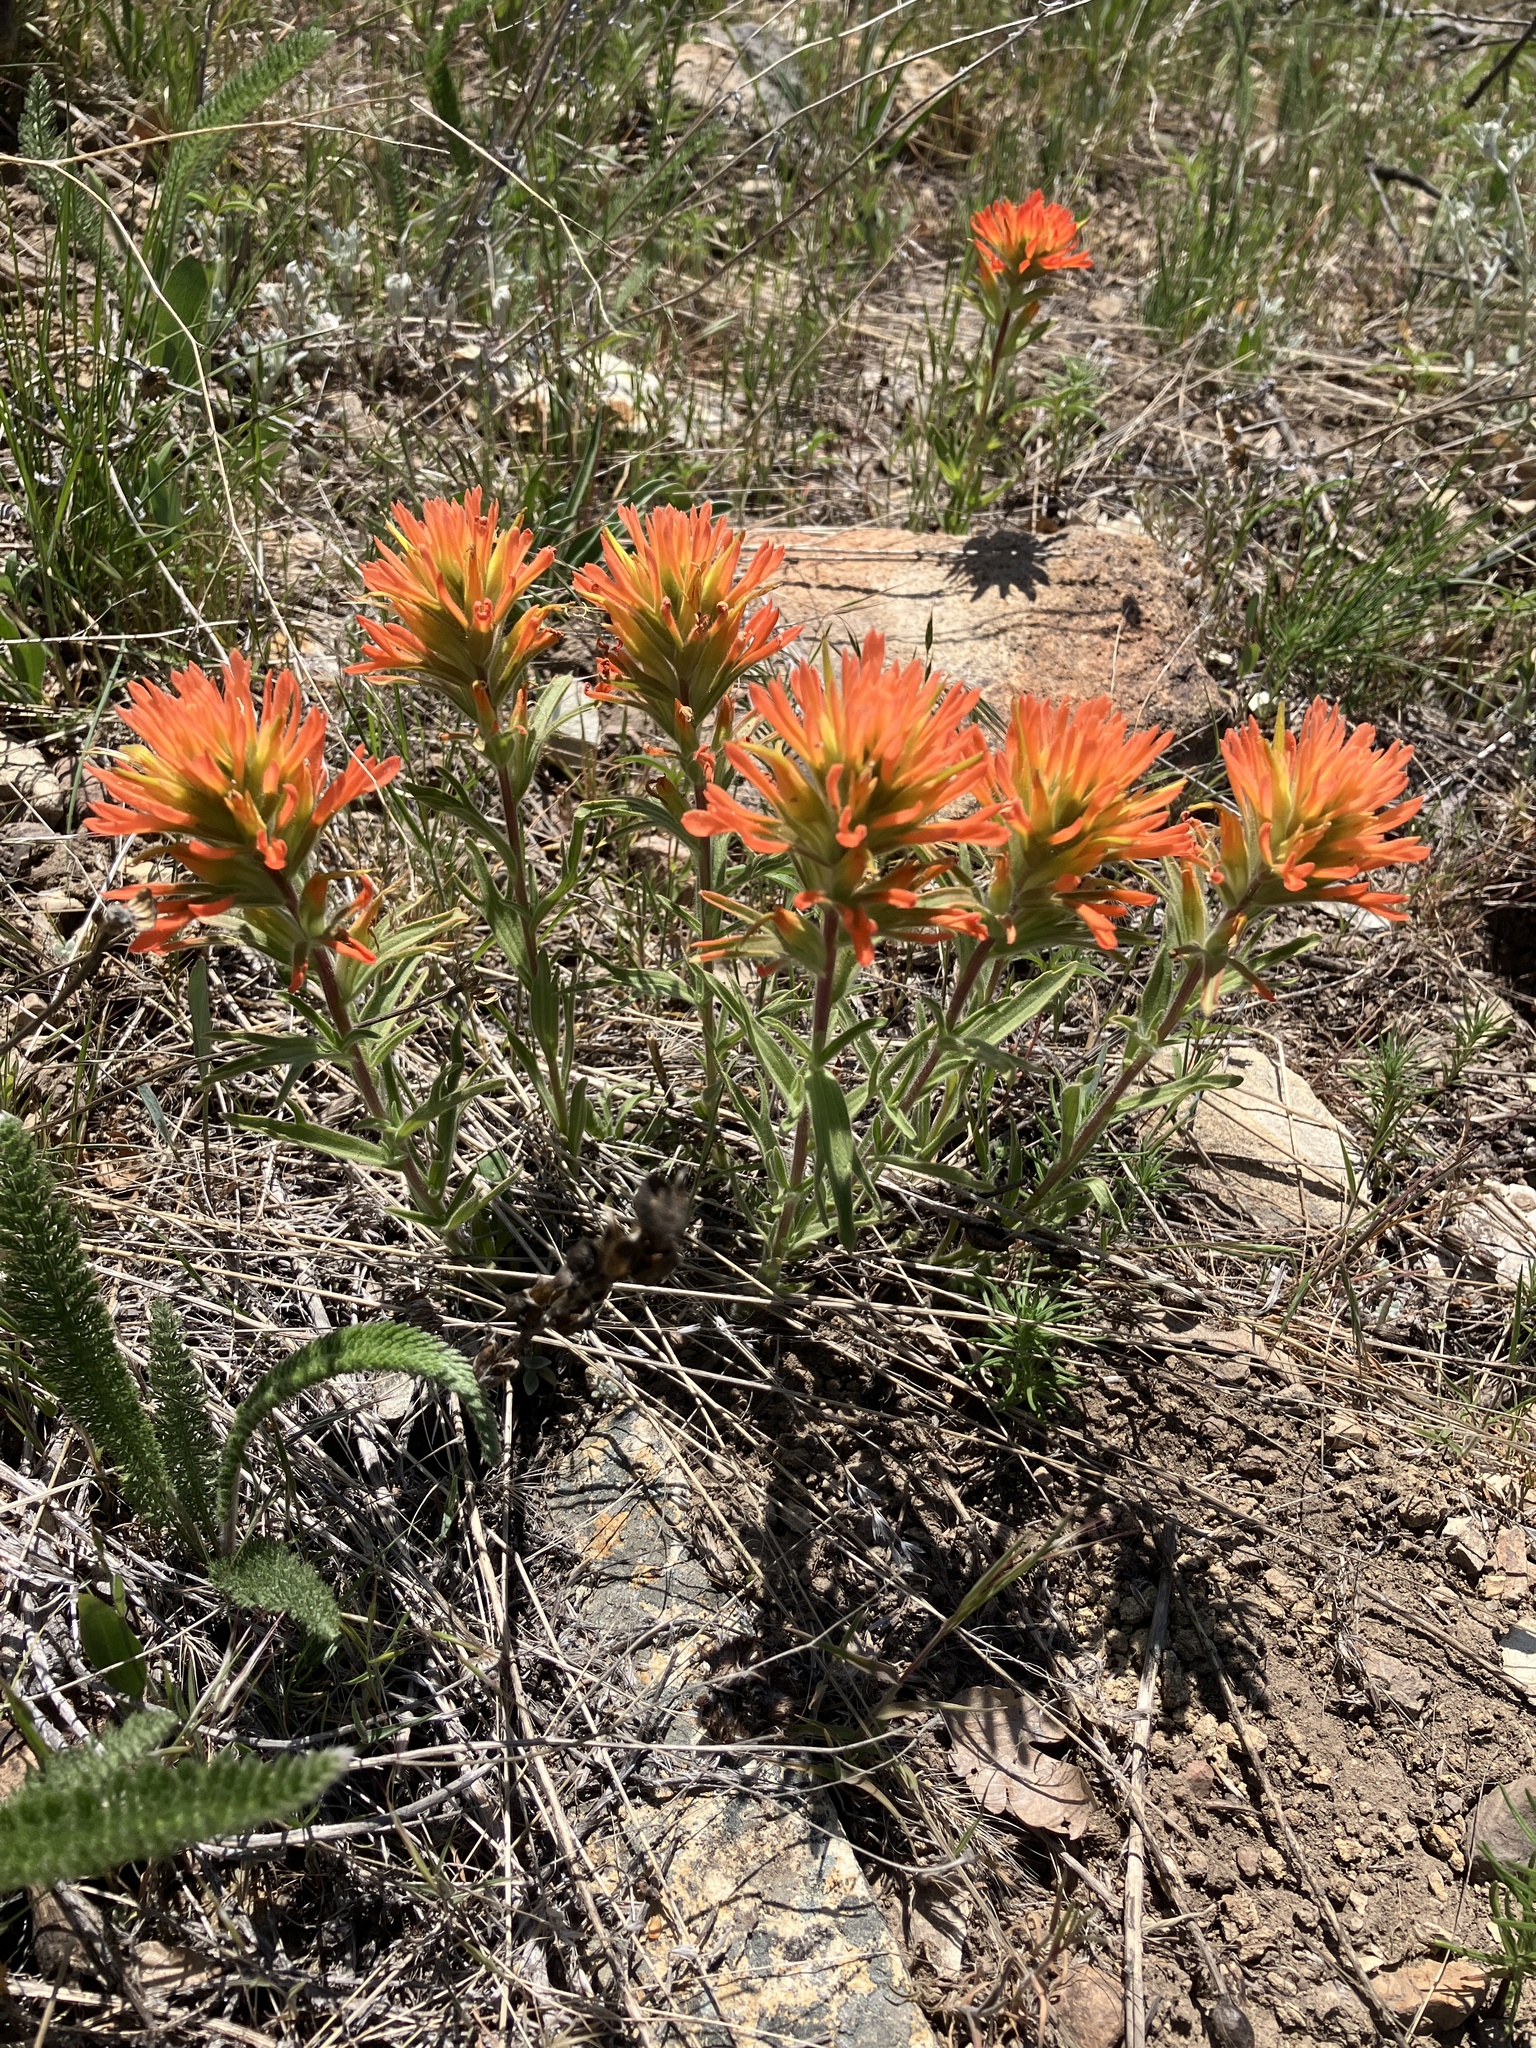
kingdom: Plantae
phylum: Tracheophyta
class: Magnoliopsida
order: Lamiales
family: Orobanchaceae
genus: Castilleja
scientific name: Castilleja applegatei
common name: Wavy-leaf paintbrush
